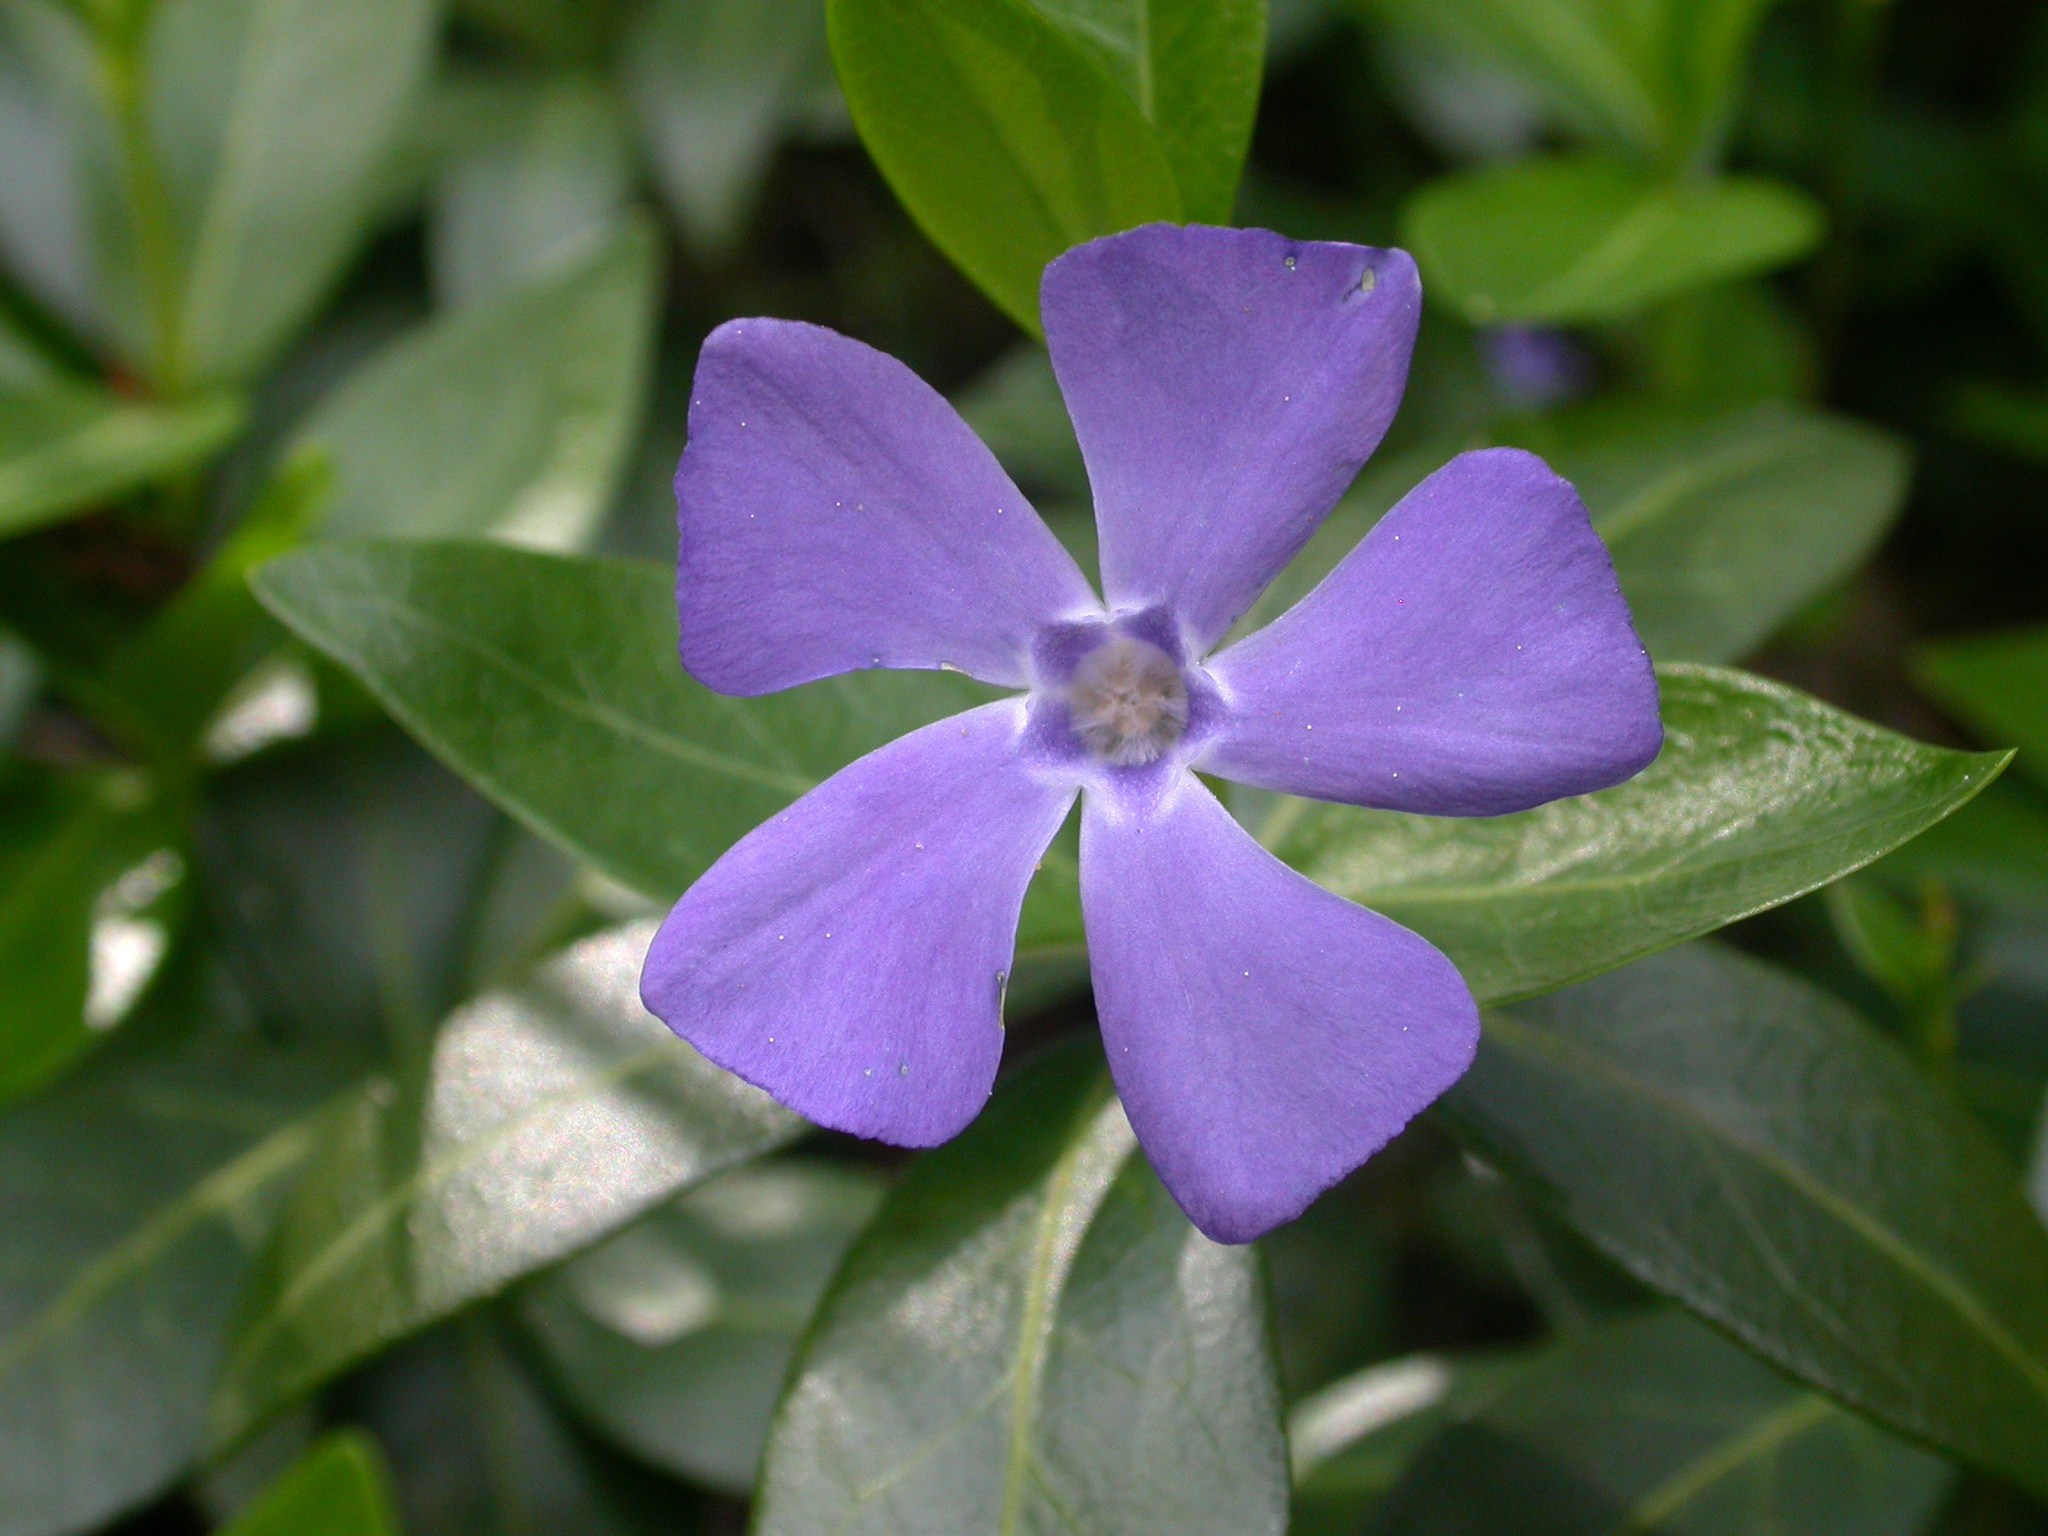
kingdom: Plantae
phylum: Tracheophyta
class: Magnoliopsida
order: Gentianales
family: Apocynaceae
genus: Vinca
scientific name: Vinca minor
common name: Lesser periwinkle
